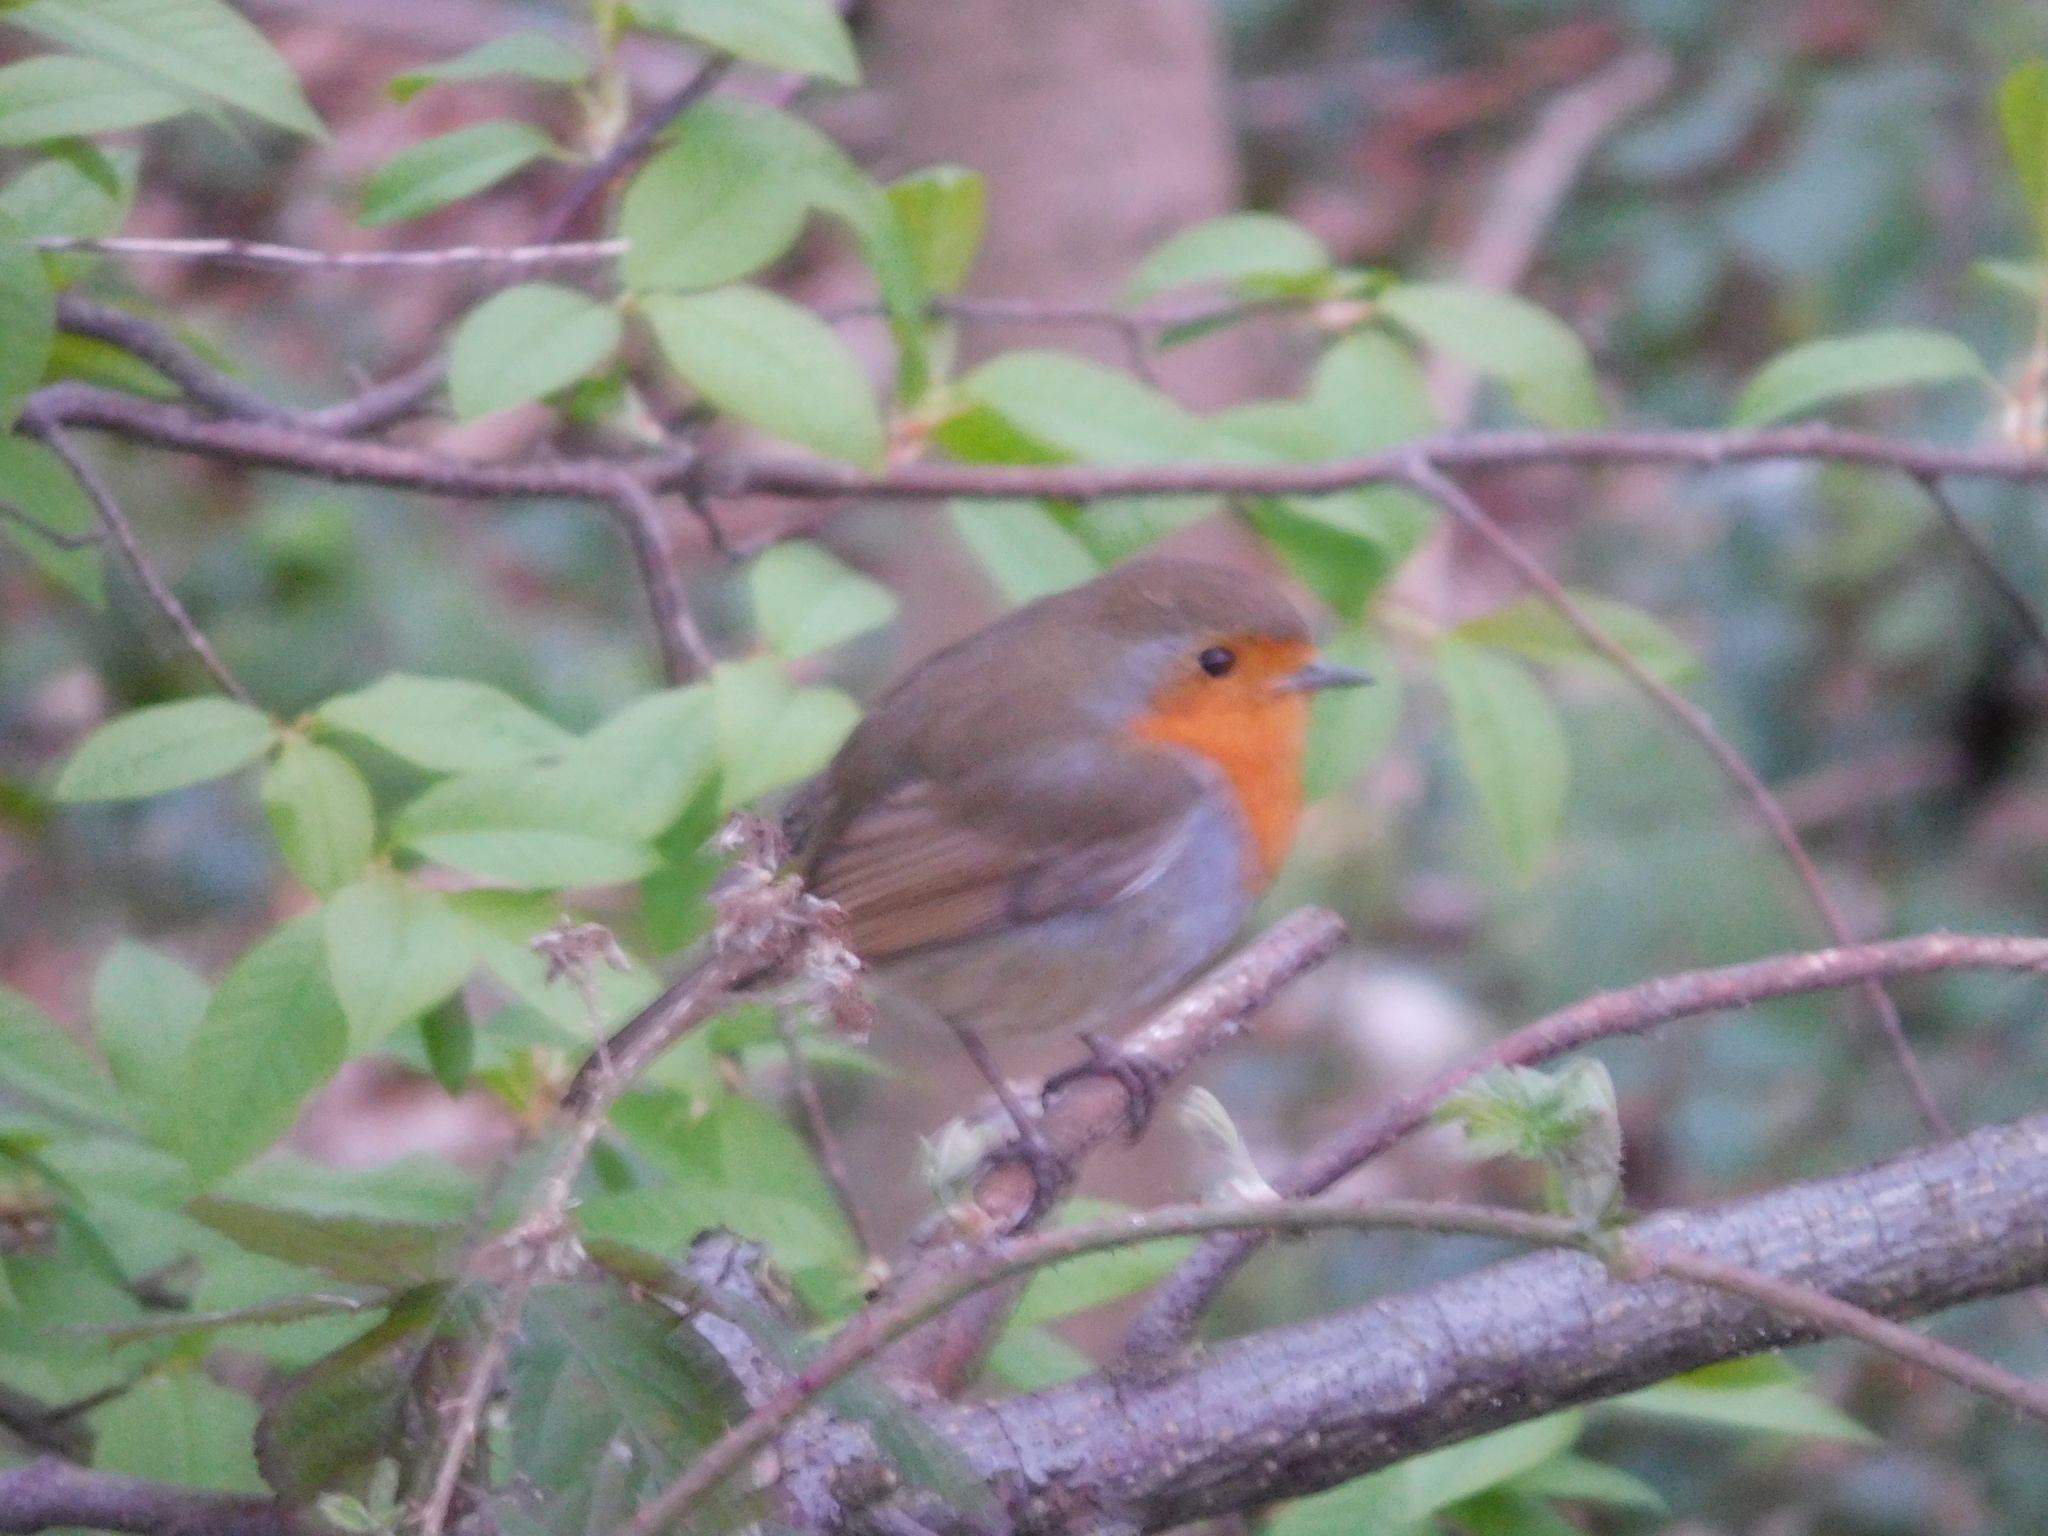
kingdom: Animalia
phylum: Chordata
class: Aves
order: Passeriformes
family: Muscicapidae
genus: Erithacus
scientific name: Erithacus rubecula
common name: European robin
